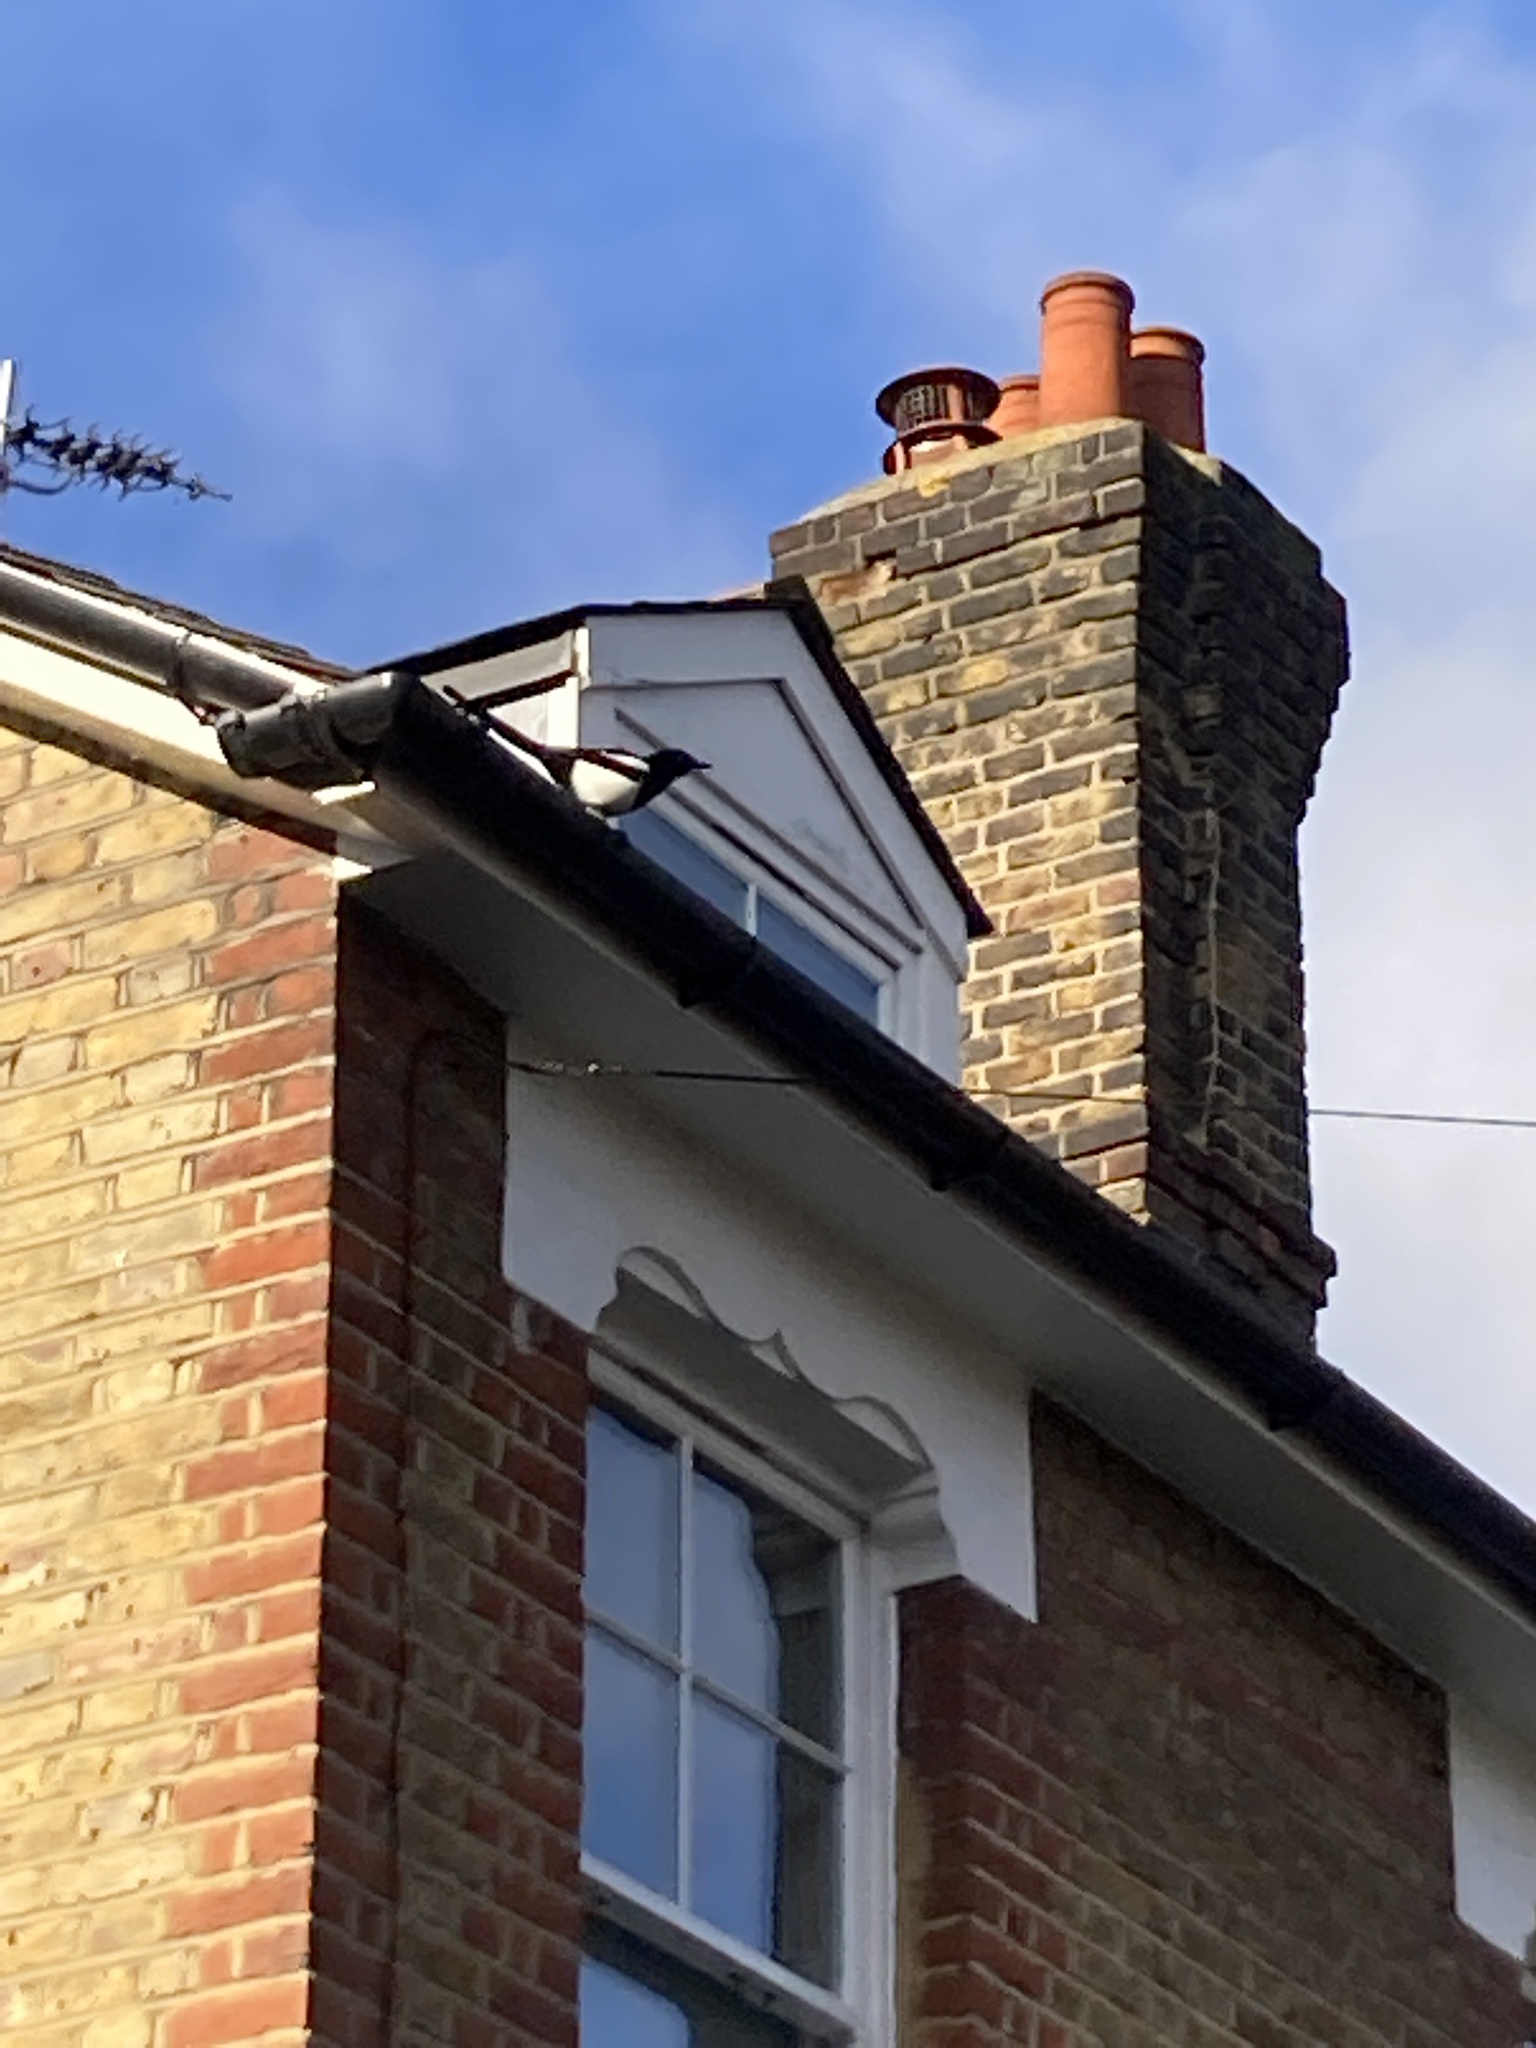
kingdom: Animalia
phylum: Chordata
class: Aves
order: Passeriformes
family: Corvidae
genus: Pica
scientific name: Pica pica
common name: Eurasian magpie
